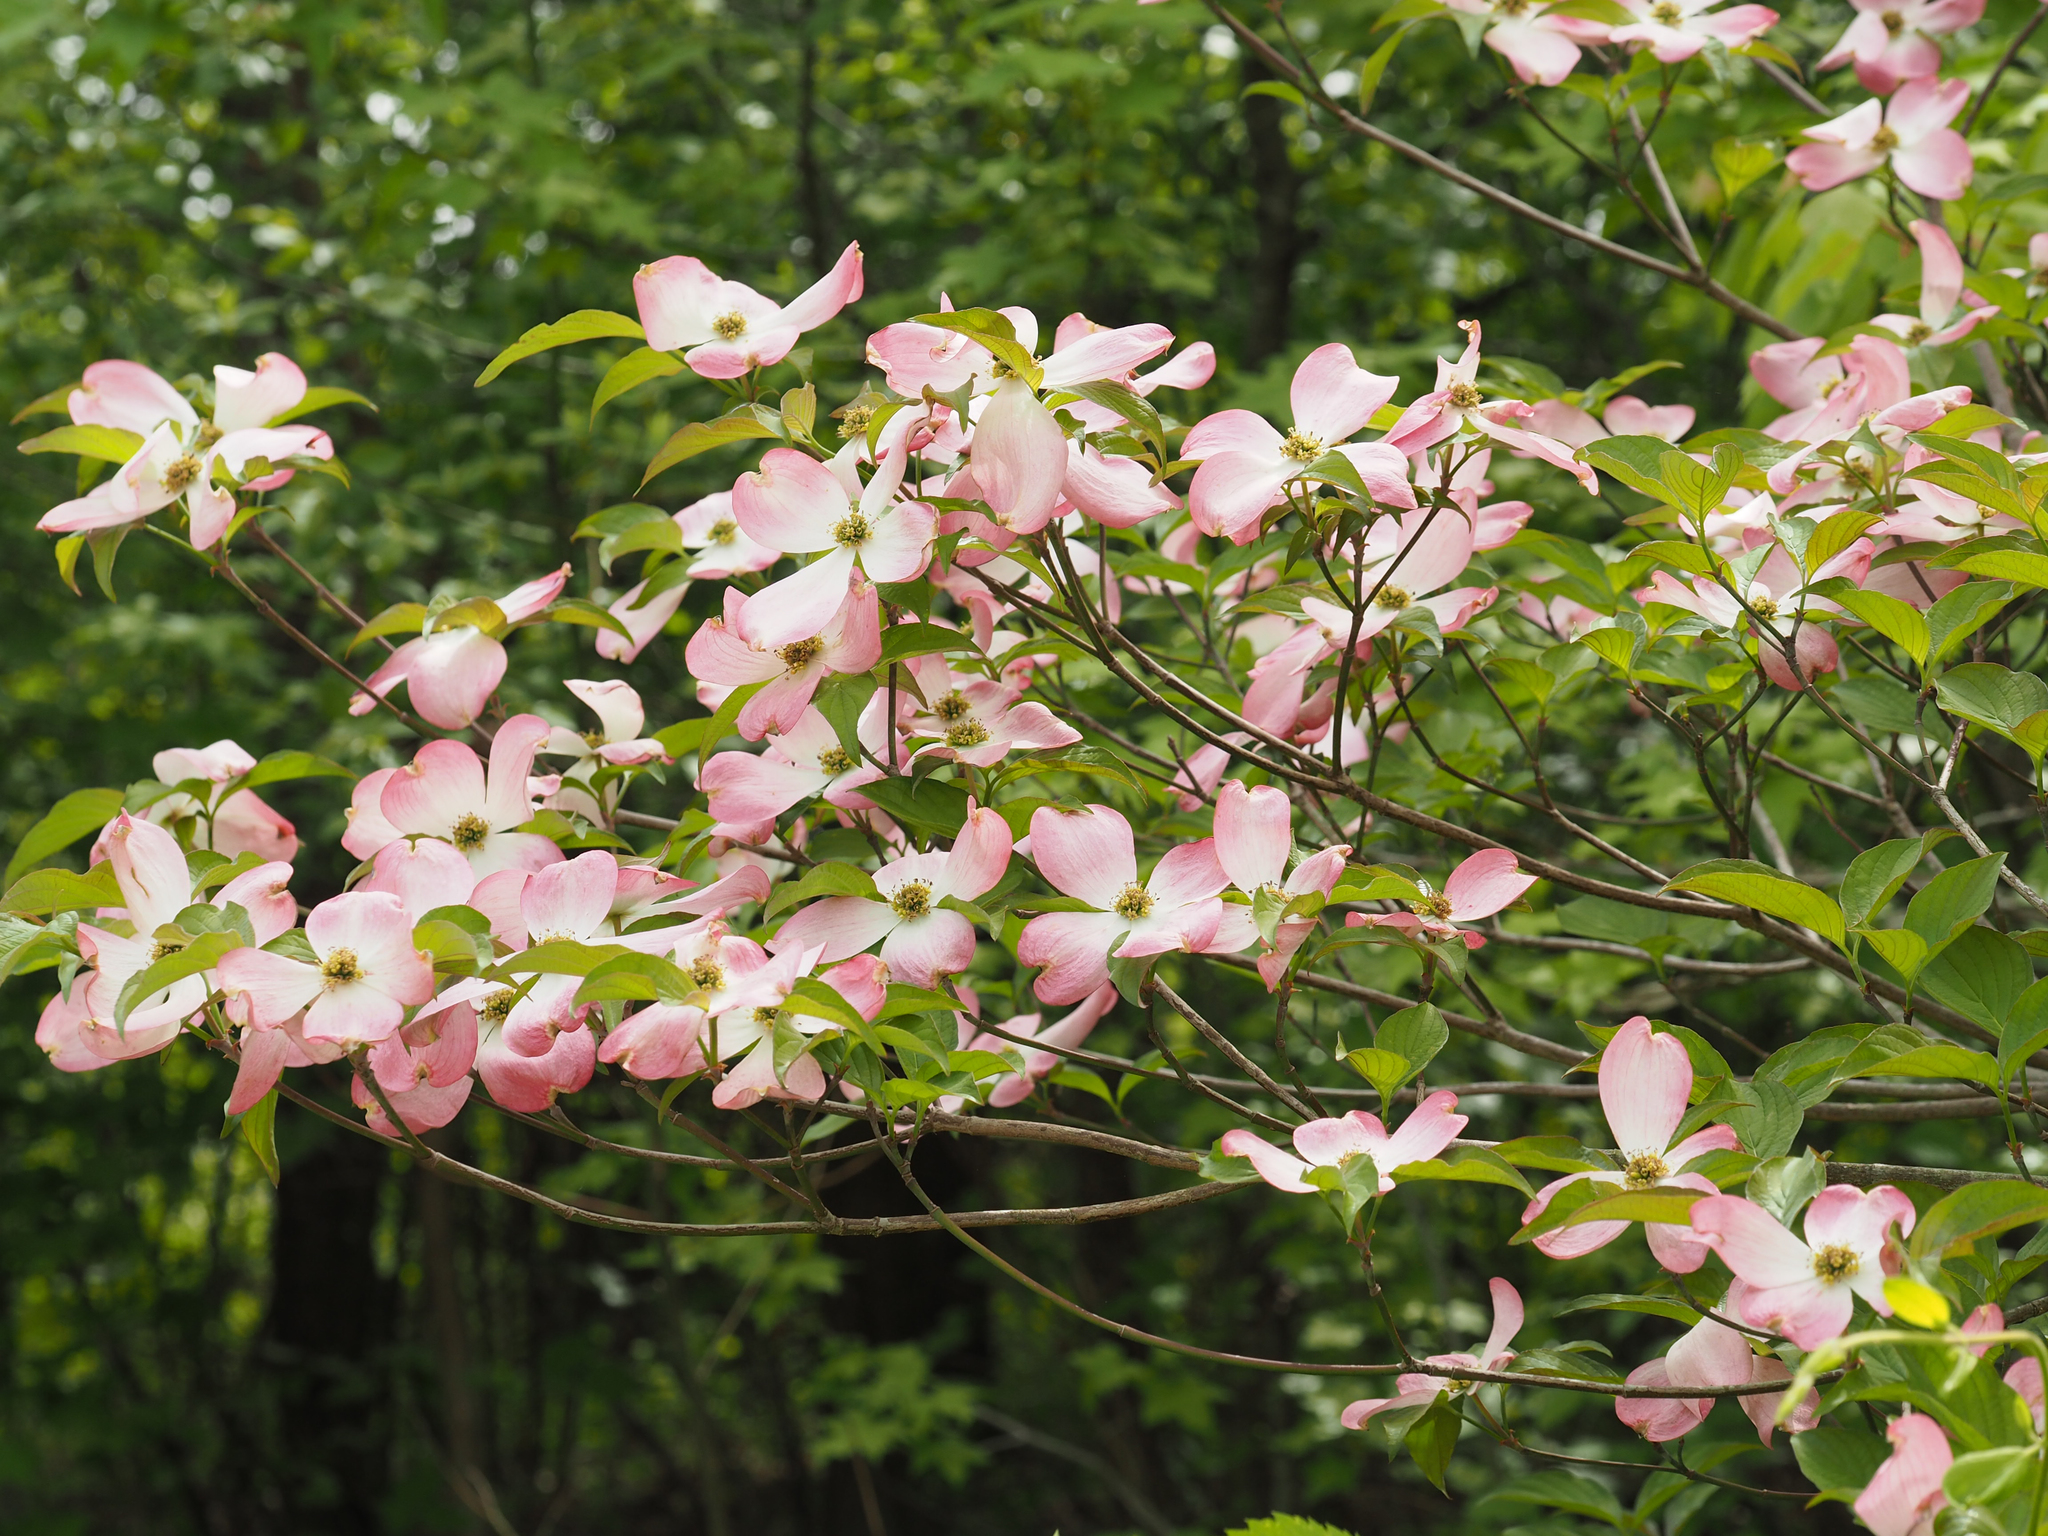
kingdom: Plantae
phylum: Tracheophyta
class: Magnoliopsida
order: Cornales
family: Cornaceae
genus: Cornus
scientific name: Cornus florida
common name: Flowering dogwood
